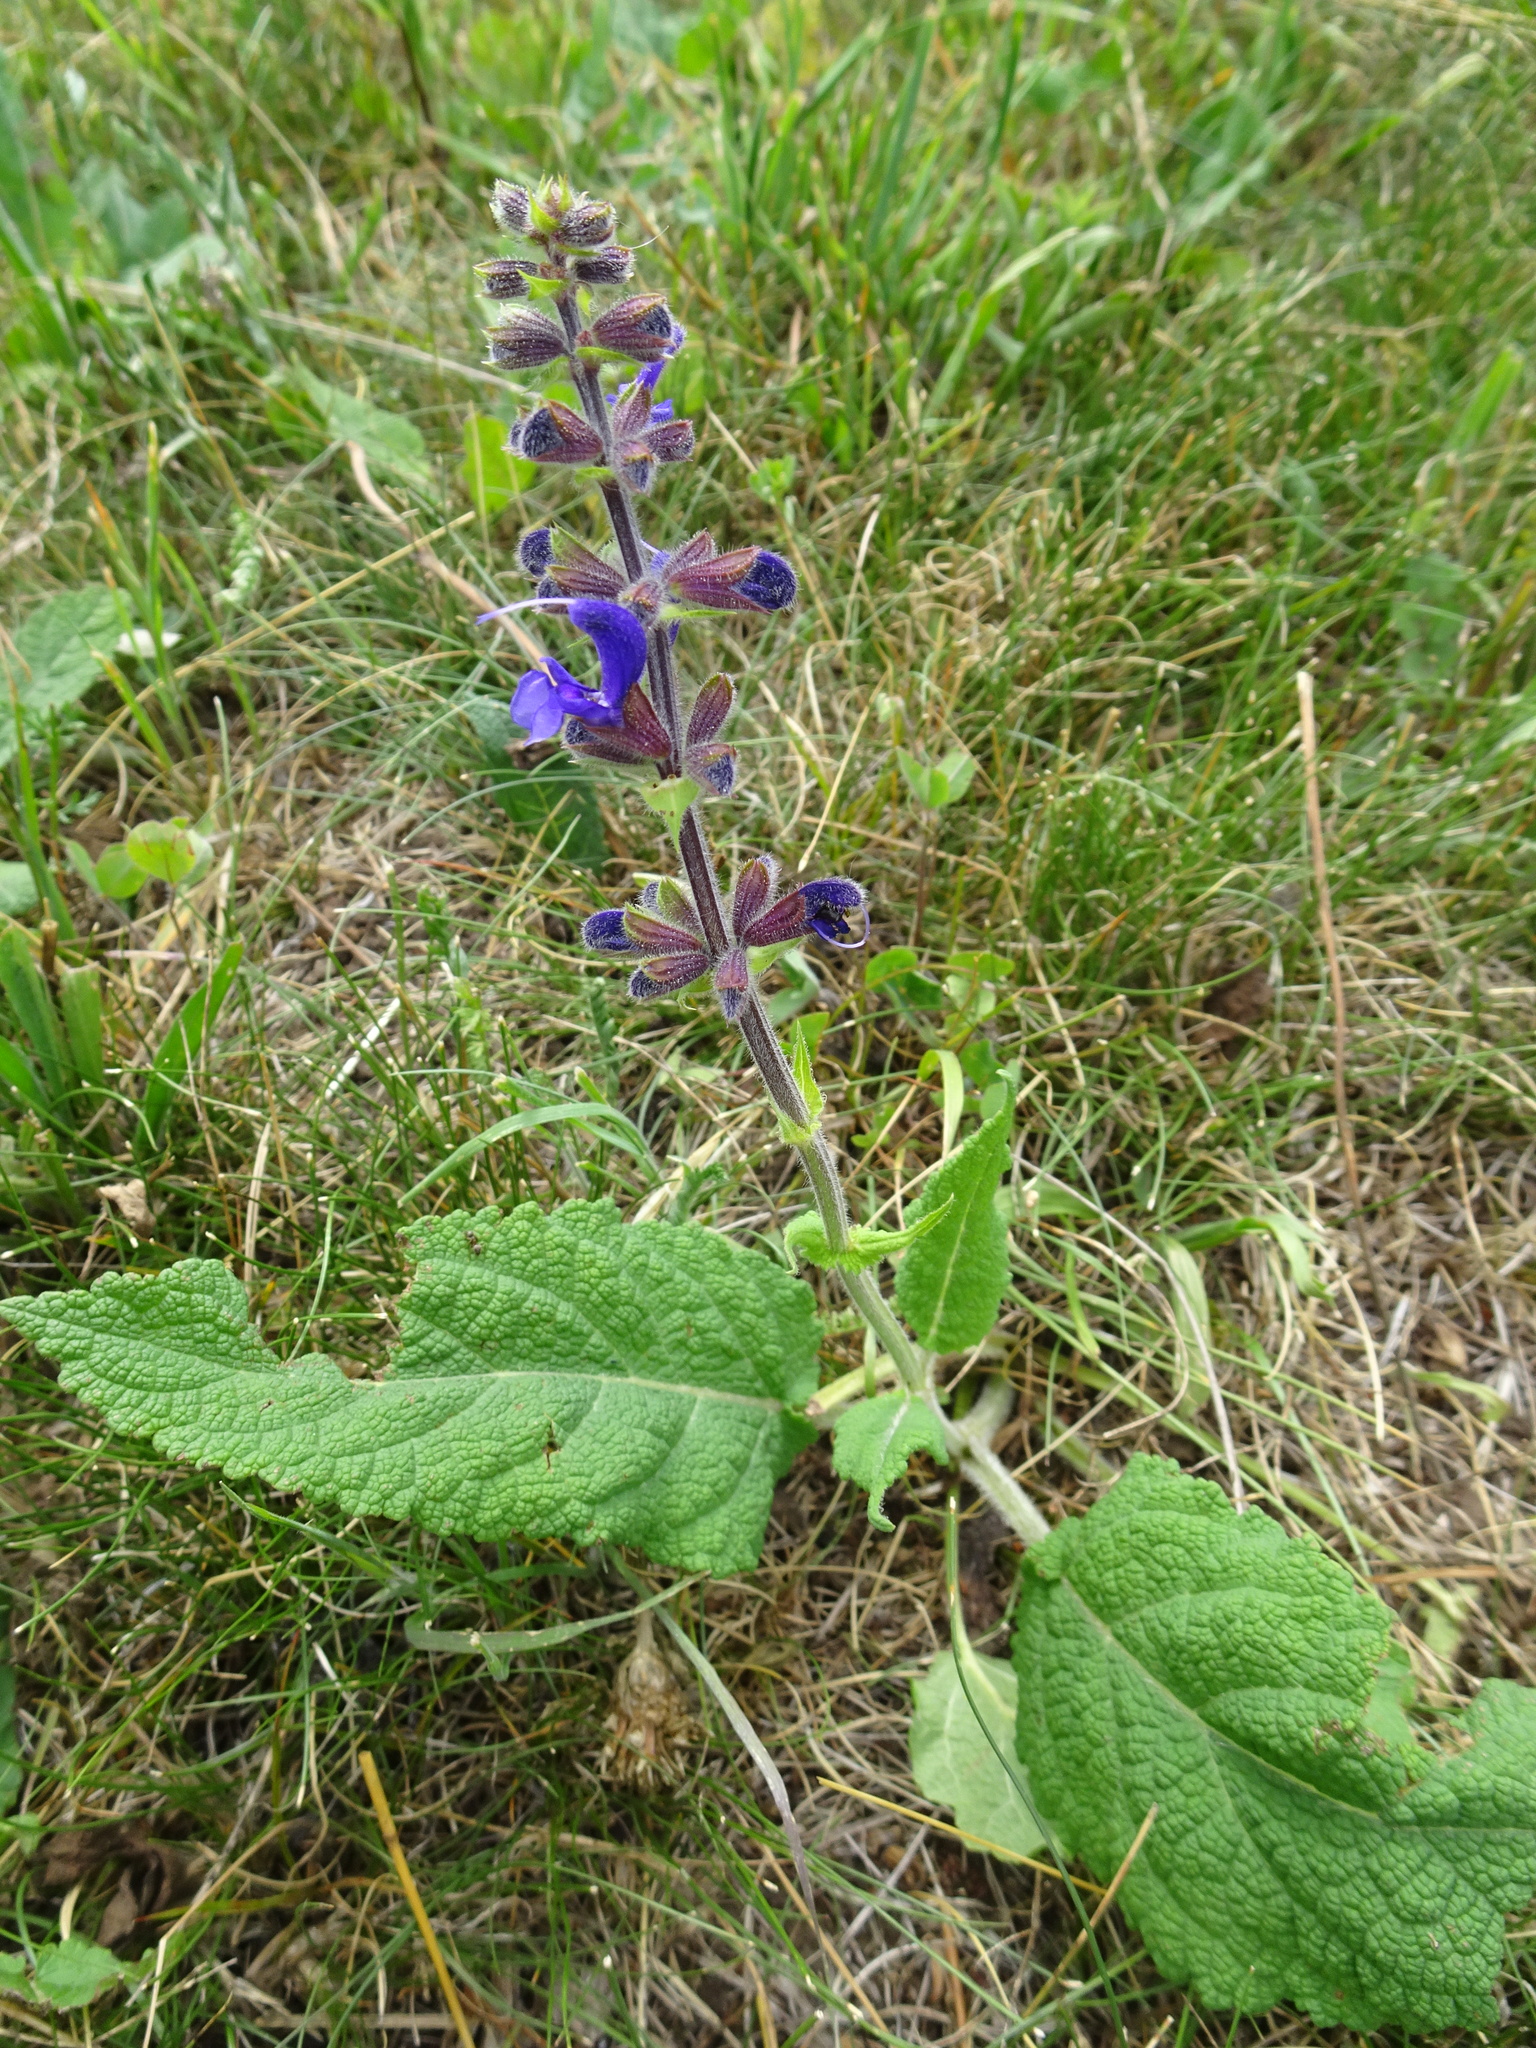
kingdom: Plantae
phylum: Tracheophyta
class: Magnoliopsida
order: Lamiales
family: Lamiaceae
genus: Salvia
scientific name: Salvia pratensis
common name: Meadow sage
